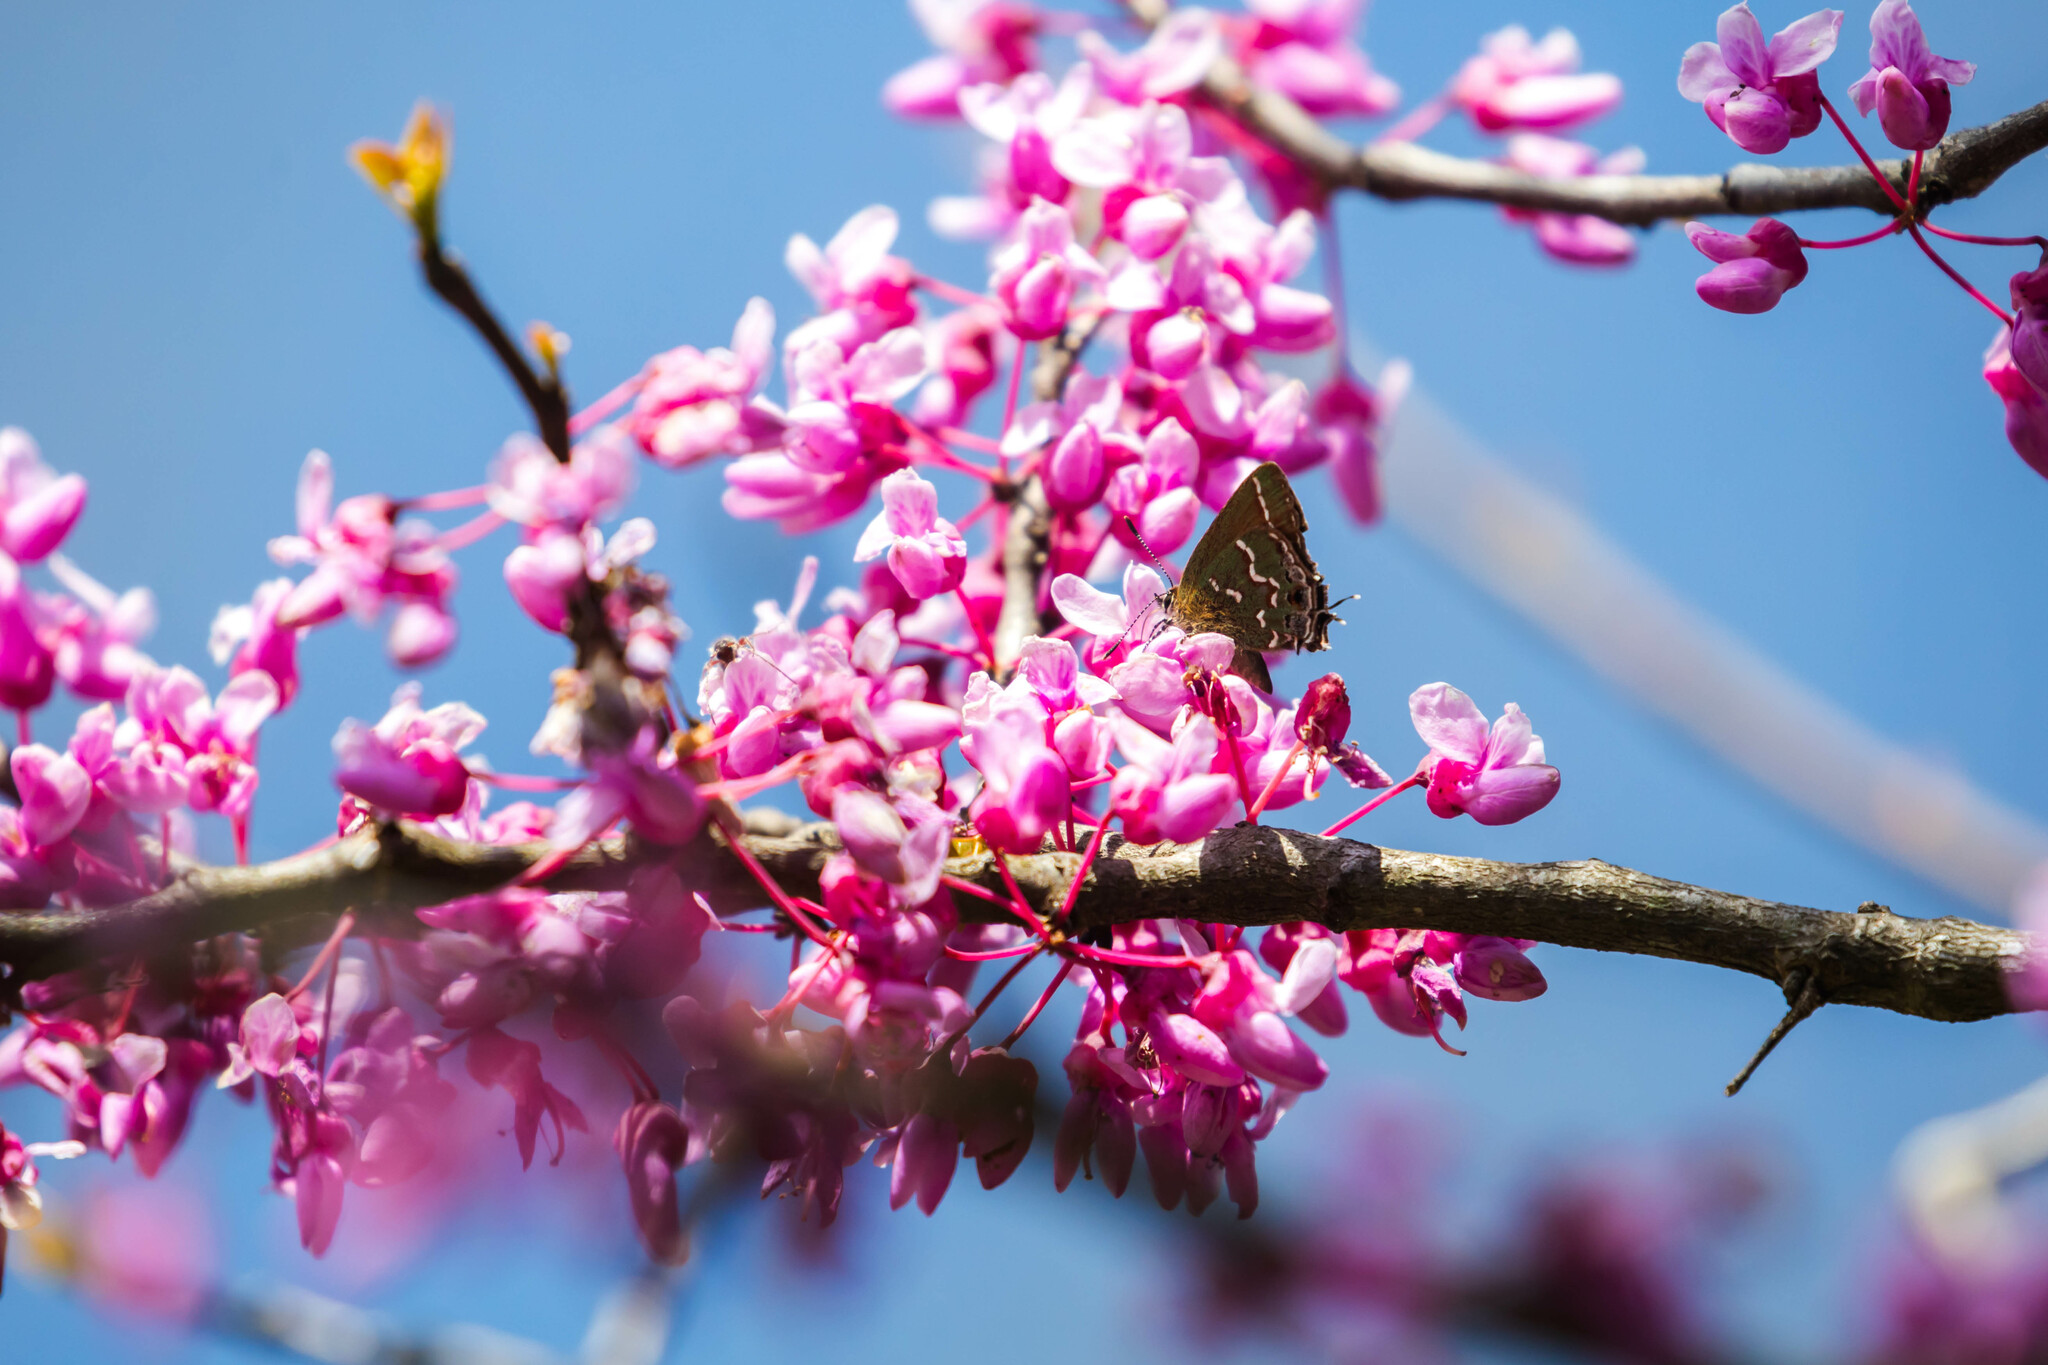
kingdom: Animalia
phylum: Arthropoda
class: Insecta
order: Lepidoptera
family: Lycaenidae
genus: Mitoura
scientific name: Mitoura gryneus
